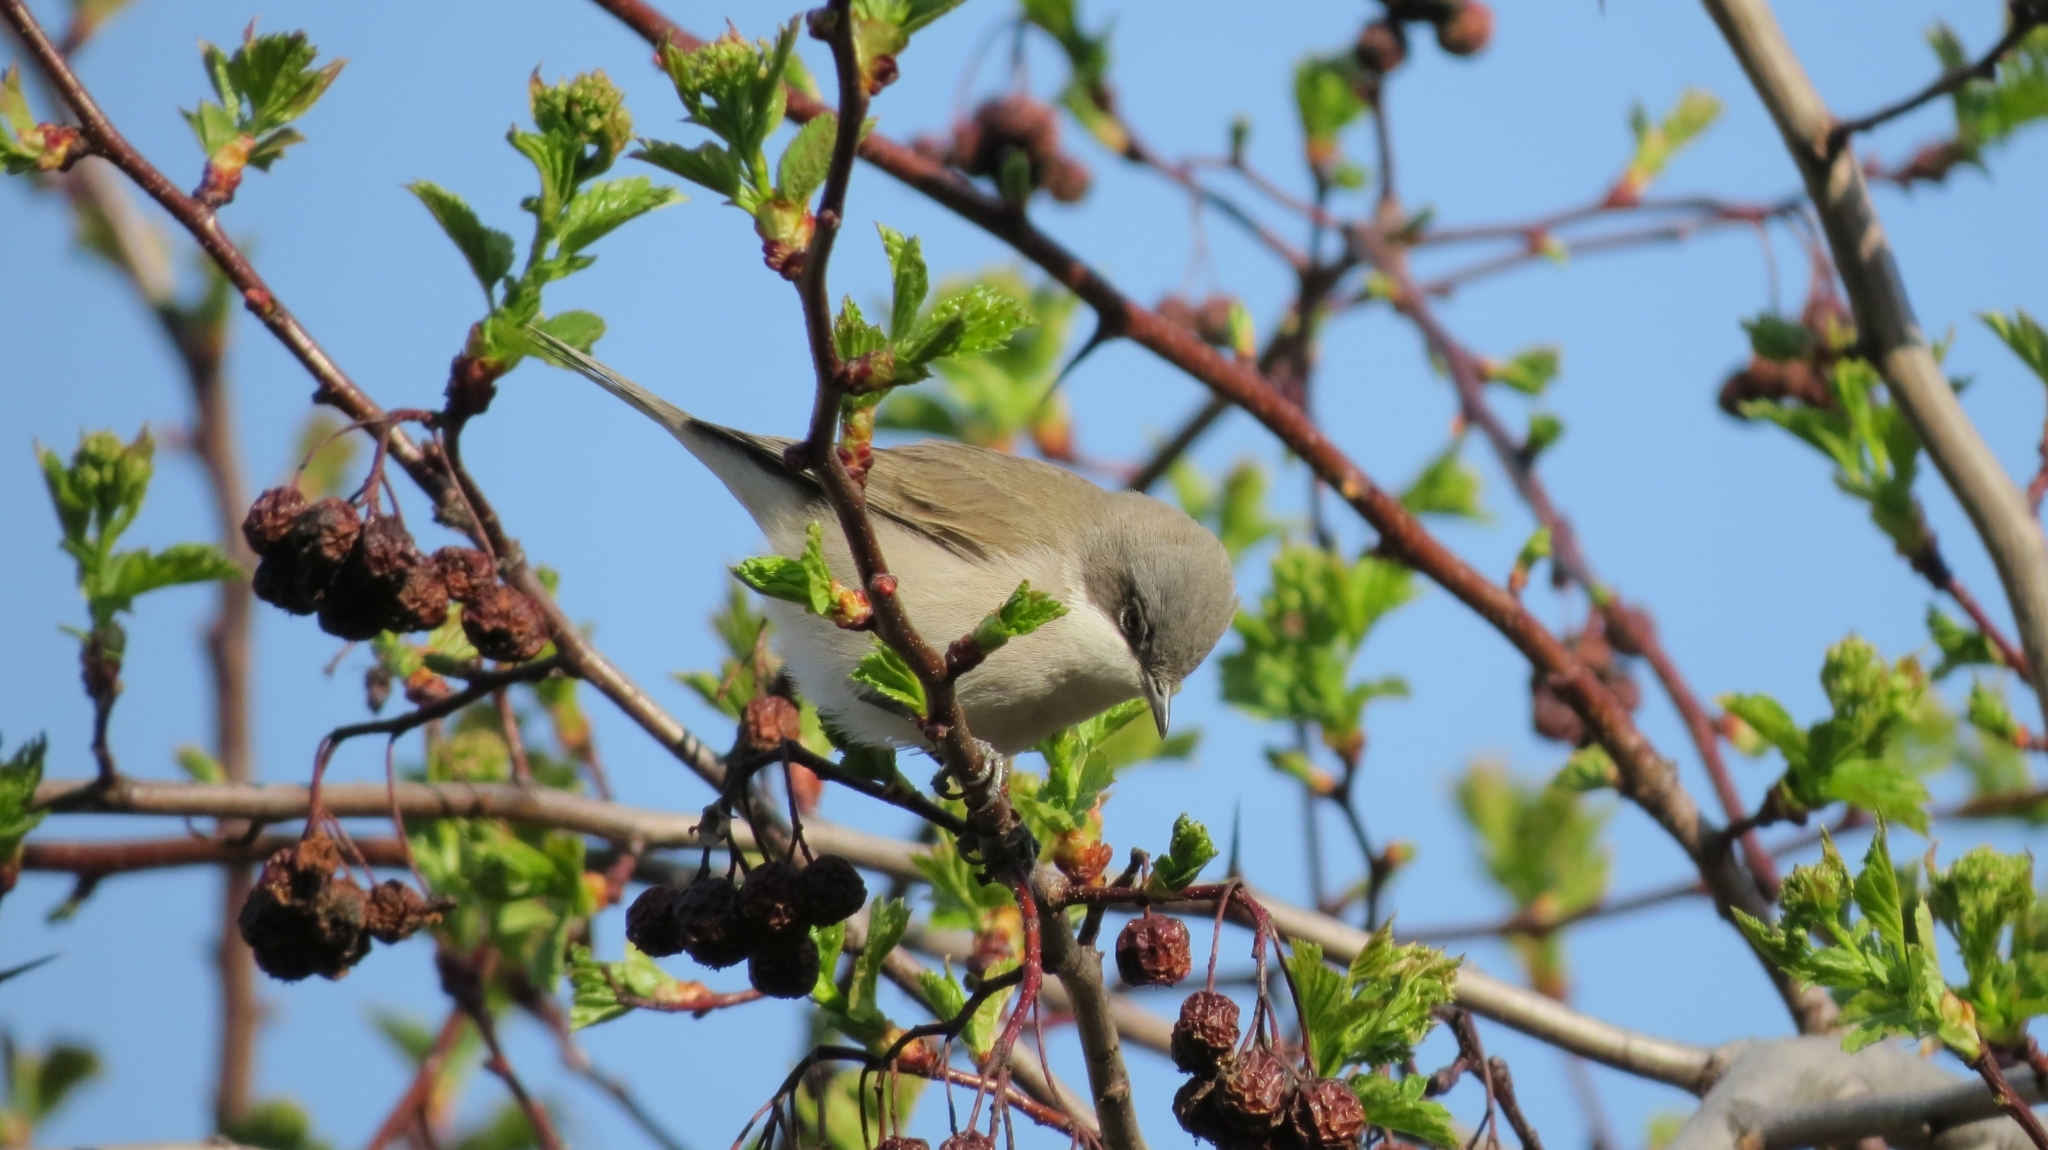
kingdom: Animalia
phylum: Chordata
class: Aves
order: Passeriformes
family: Sylviidae
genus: Sylvia
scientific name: Sylvia curruca
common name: Lesser whitethroat
